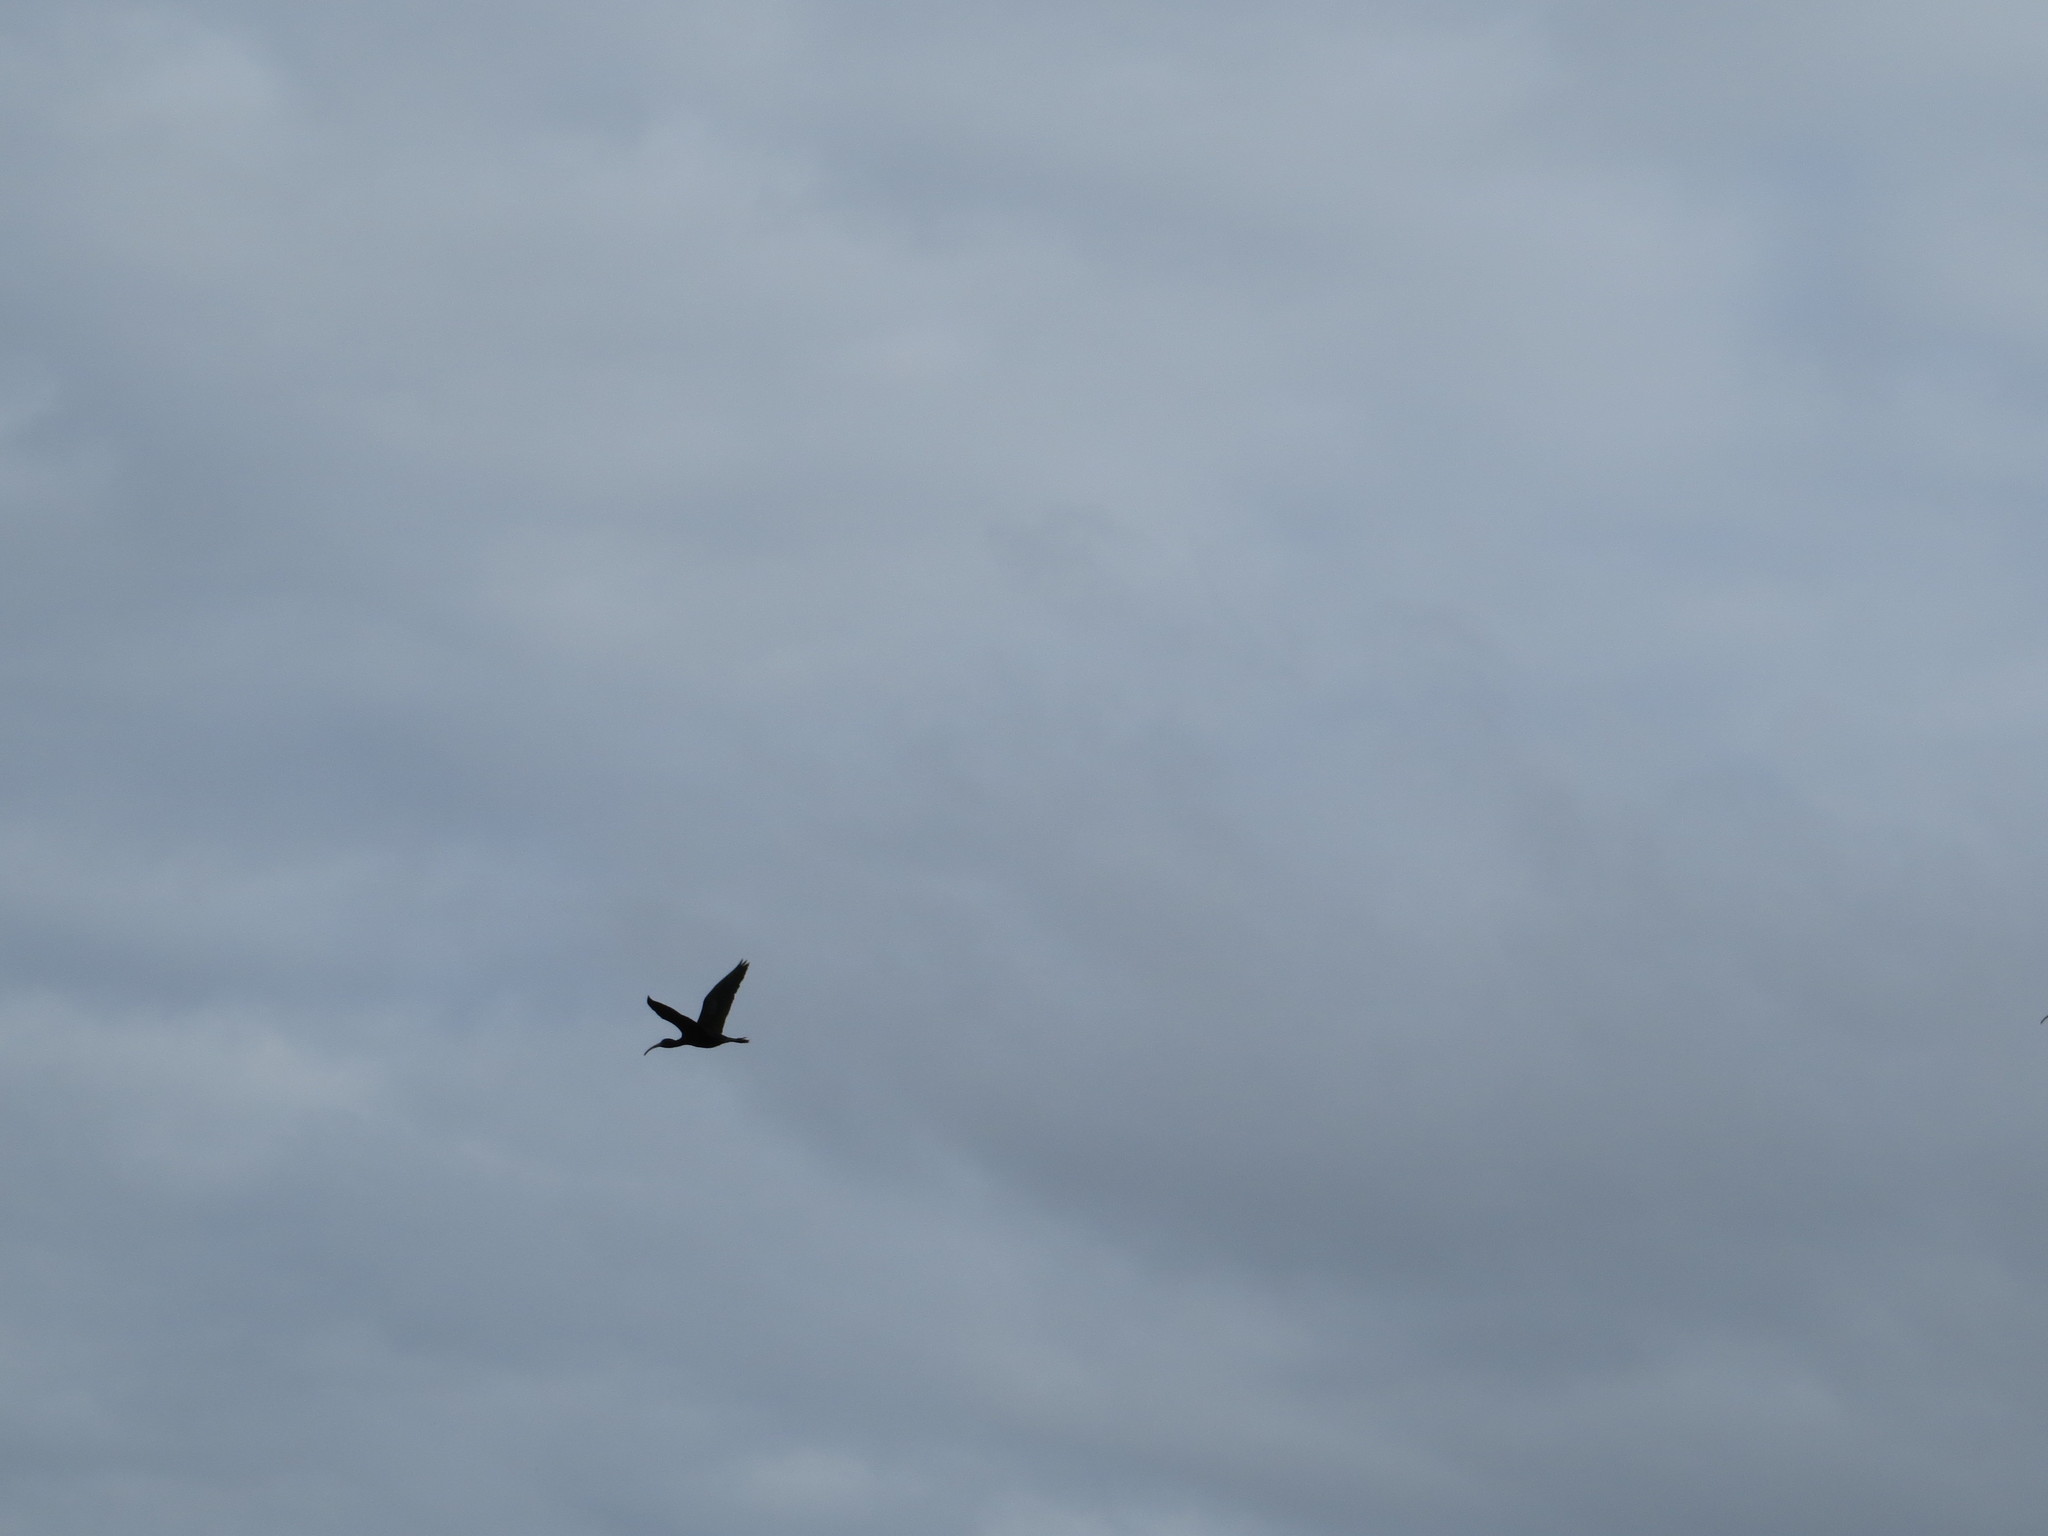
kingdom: Animalia
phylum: Chordata
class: Aves
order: Pelecaniformes
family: Threskiornithidae
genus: Plegadis
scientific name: Plegadis chihi
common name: White-faced ibis
